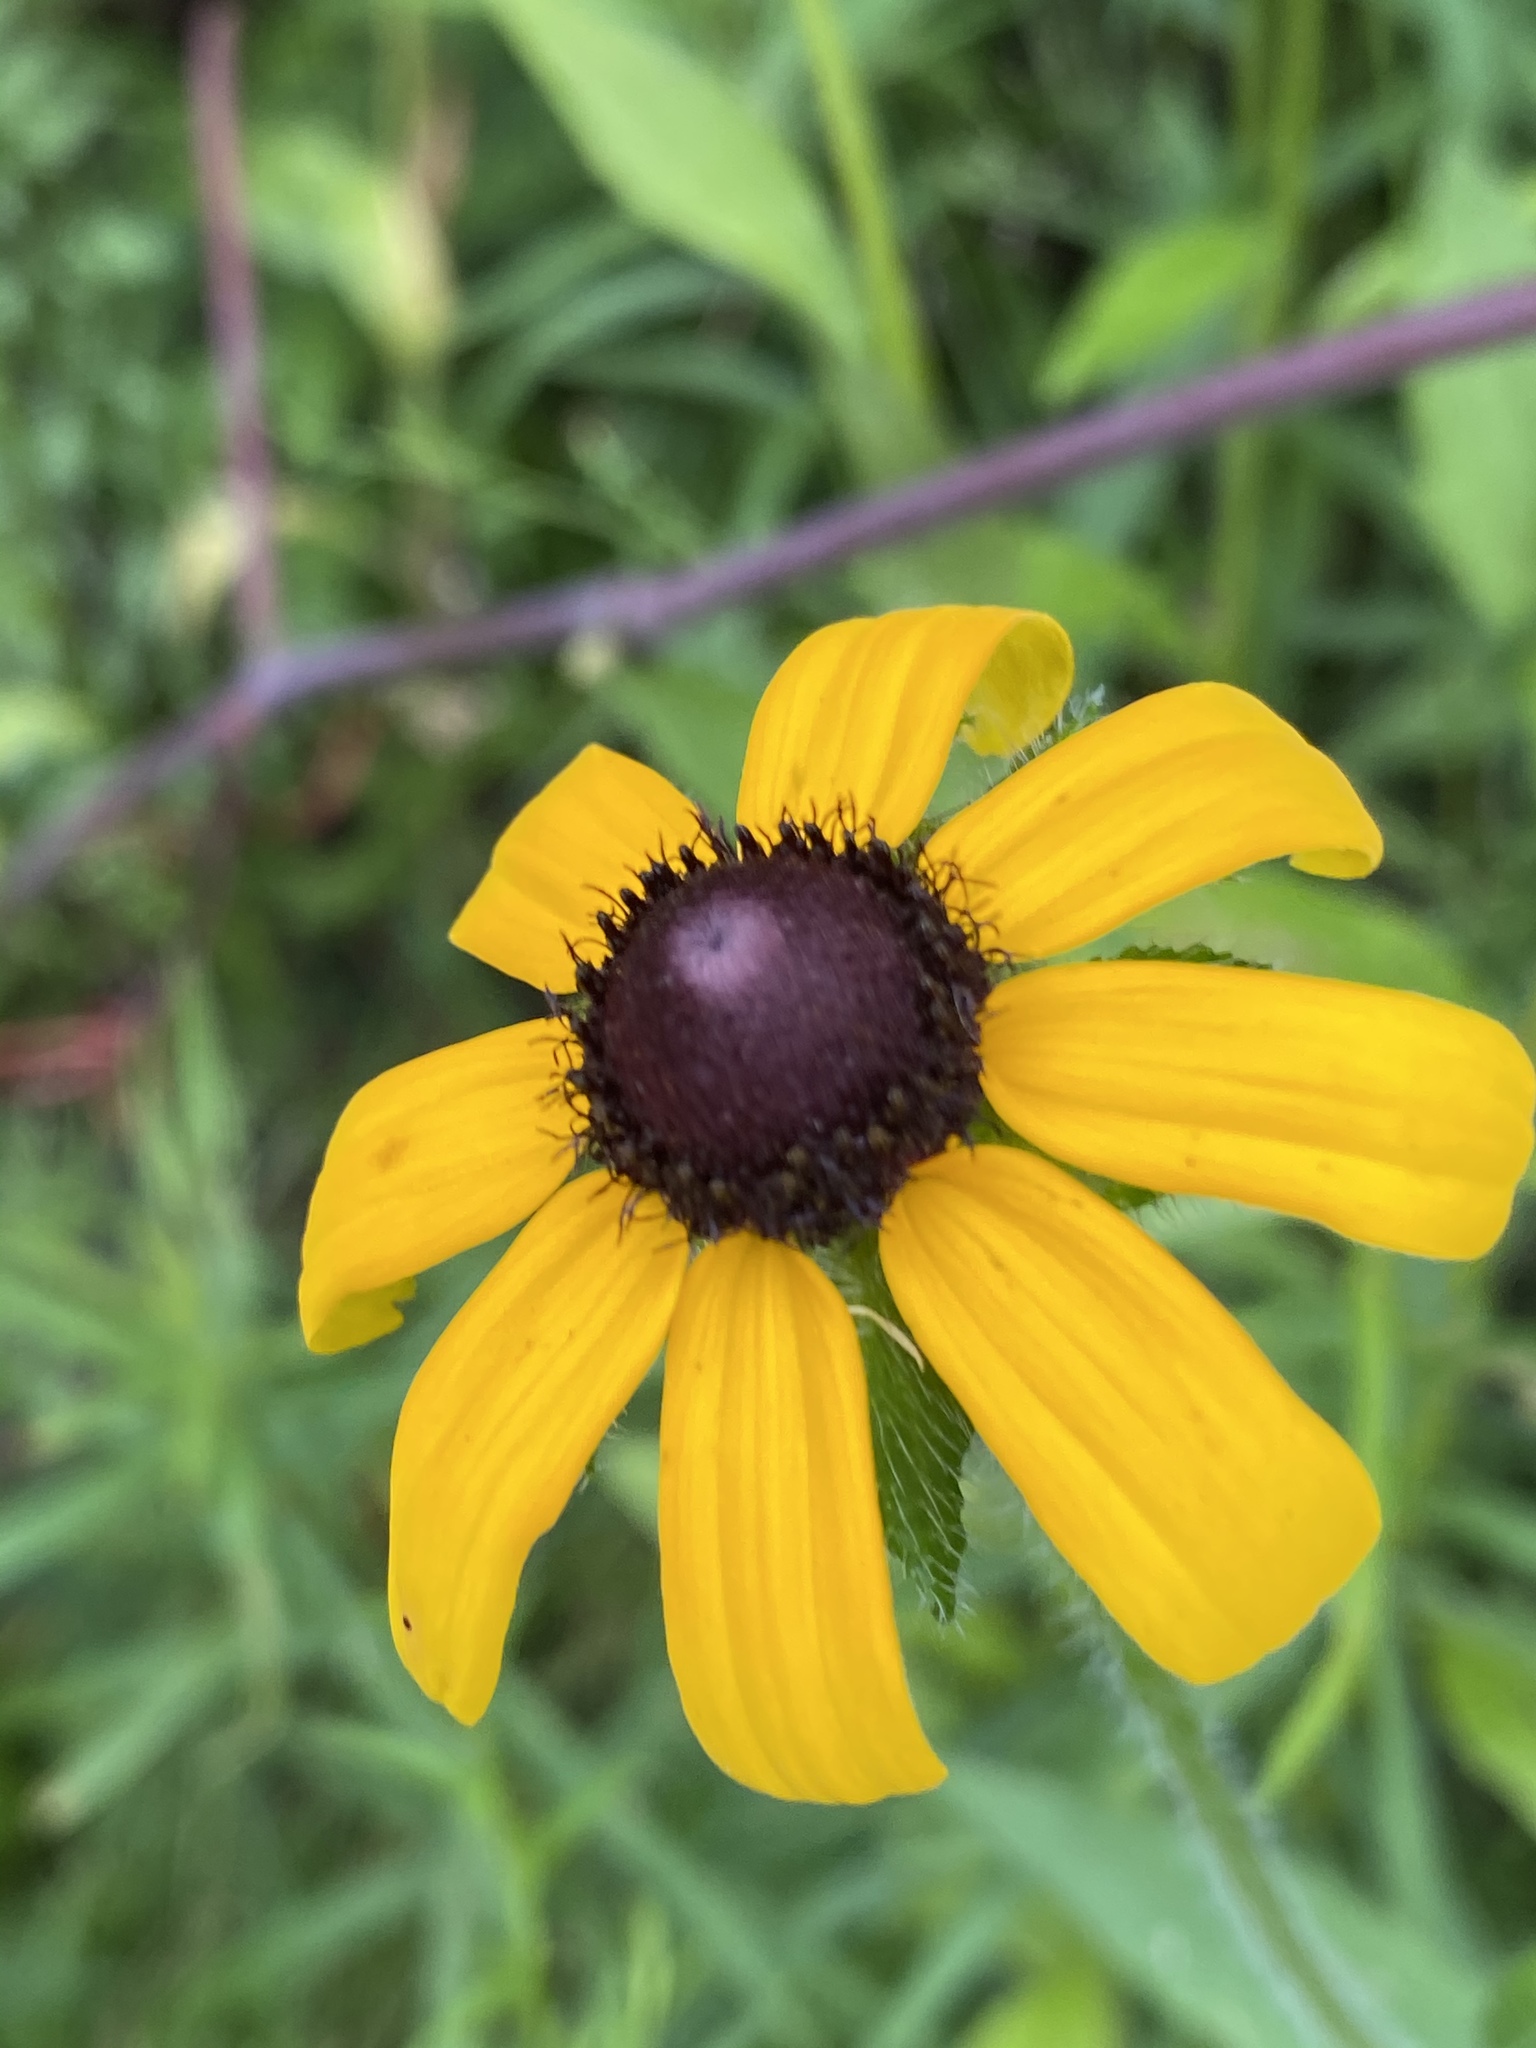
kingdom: Plantae
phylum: Tracheophyta
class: Magnoliopsida
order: Asterales
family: Asteraceae
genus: Rudbeckia
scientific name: Rudbeckia hirta
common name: Black-eyed-susan
